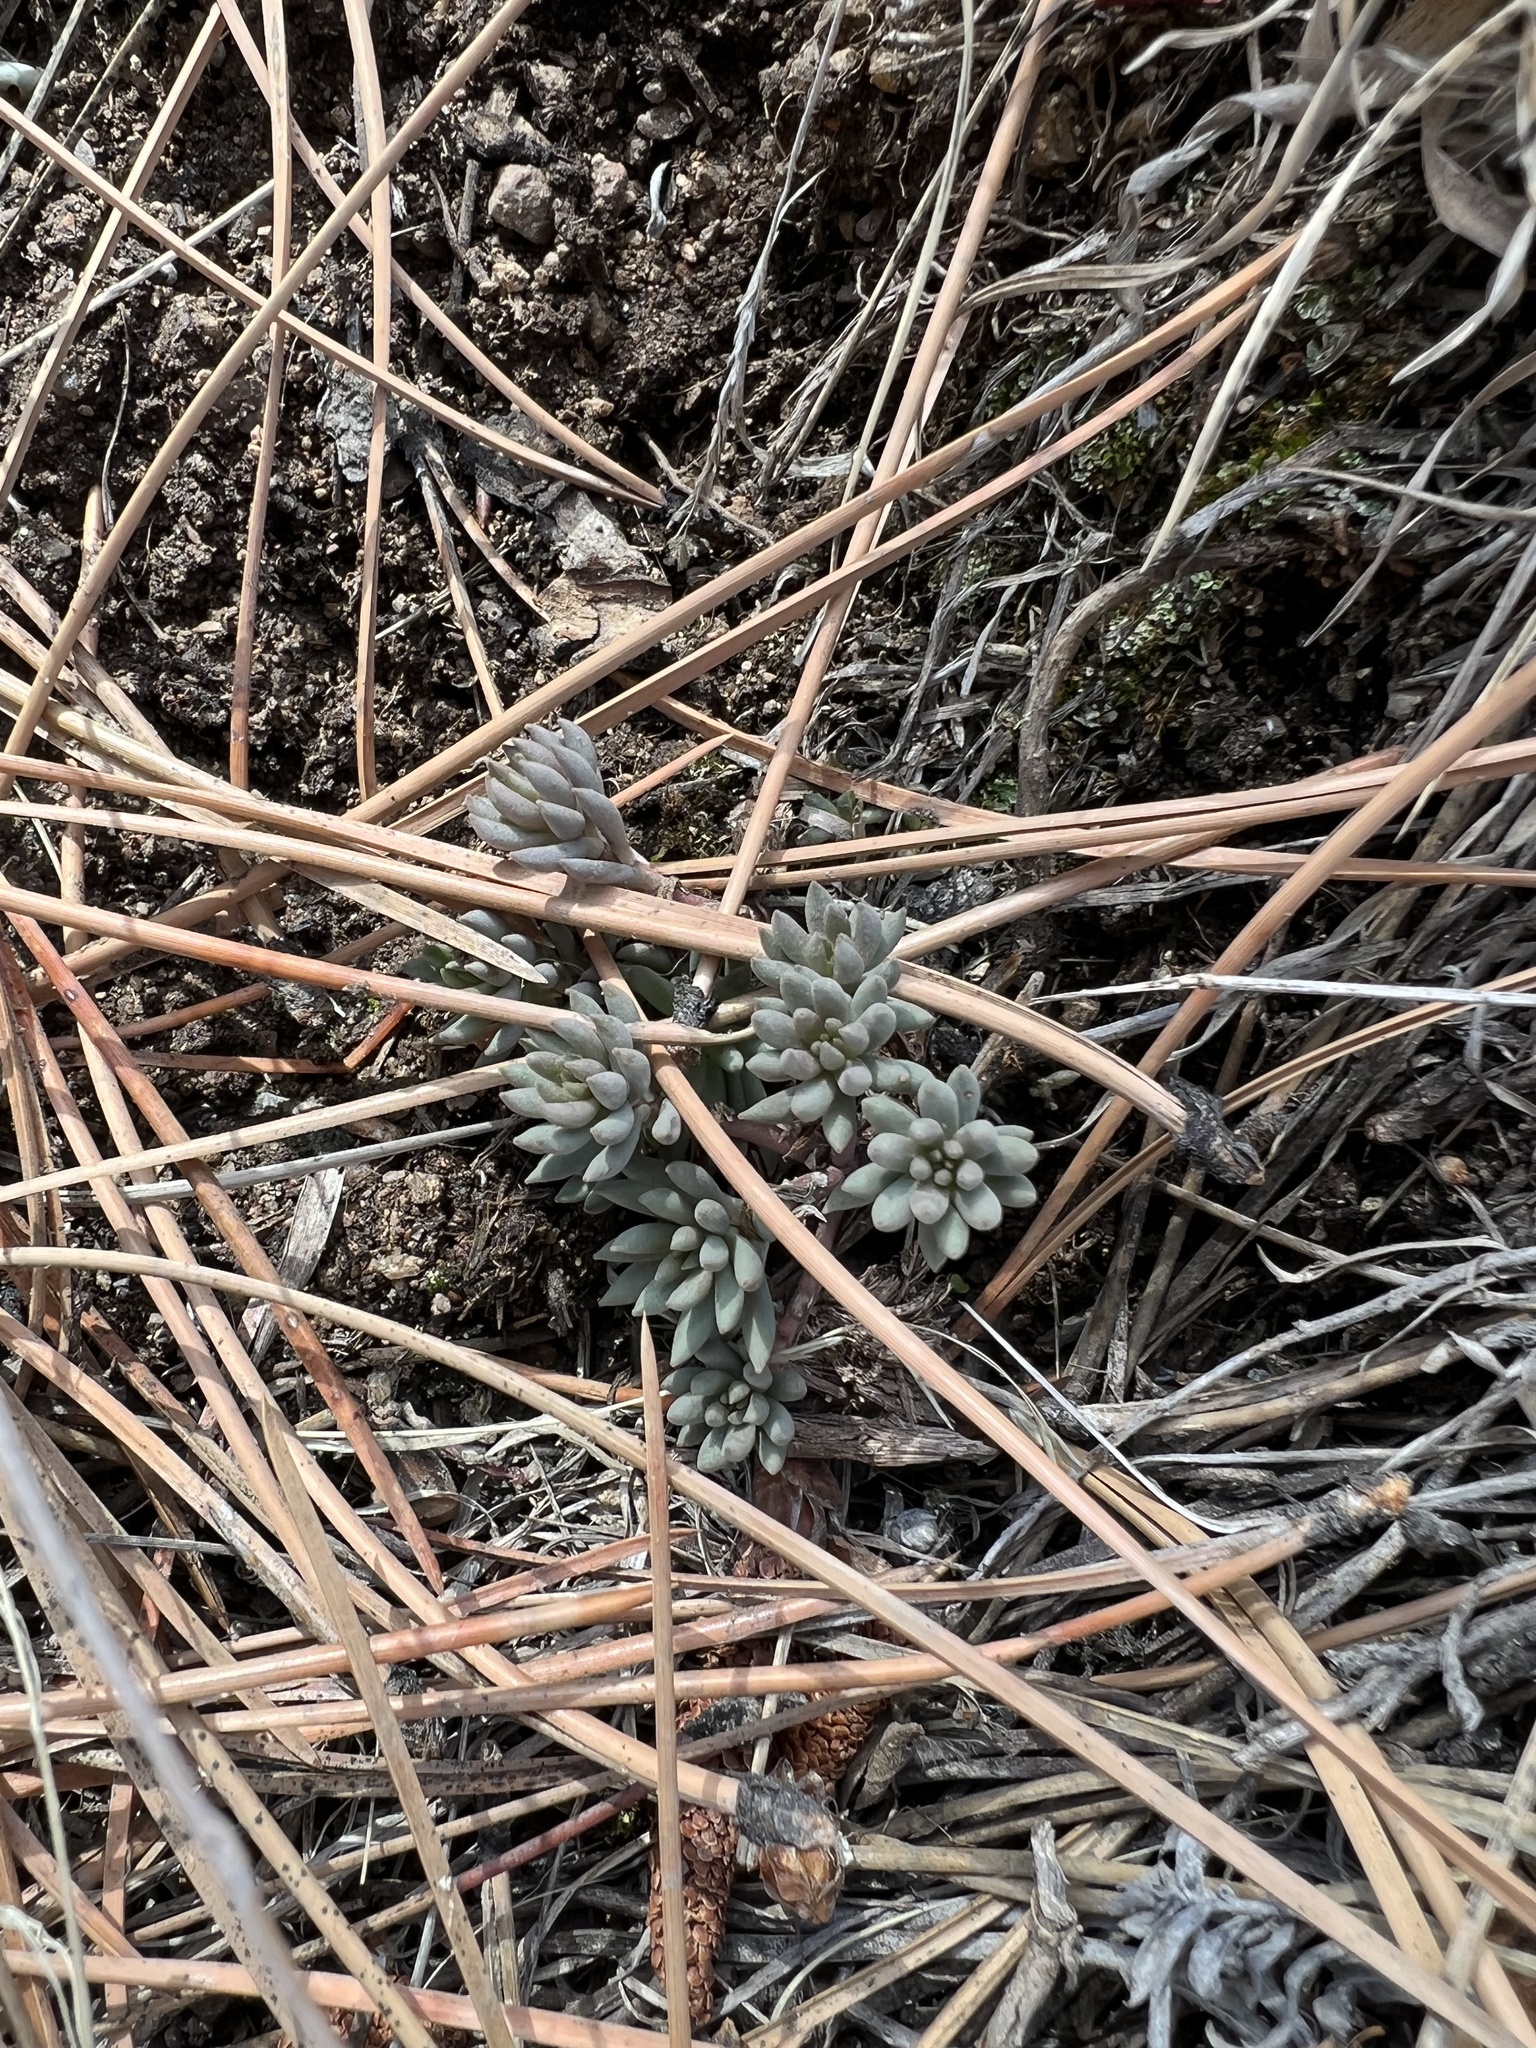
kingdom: Plantae
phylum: Tracheophyta
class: Magnoliopsida
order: Saxifragales
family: Crassulaceae
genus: Sedum
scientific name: Sedum lanceolatum
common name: Common stonecrop
